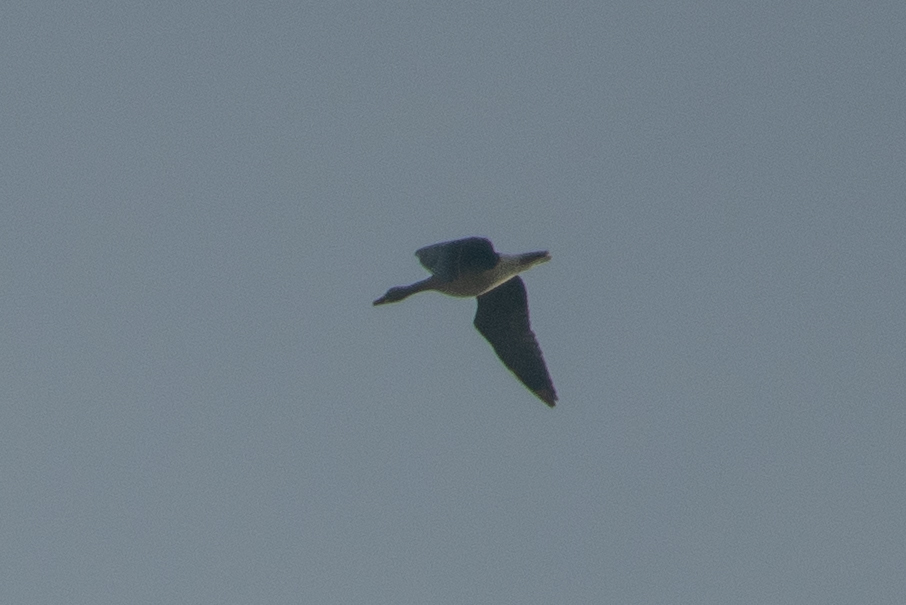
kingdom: Animalia
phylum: Chordata
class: Aves
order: Anseriformes
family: Anatidae
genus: Anser
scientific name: Anser albifrons
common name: Greater white-fronted goose
